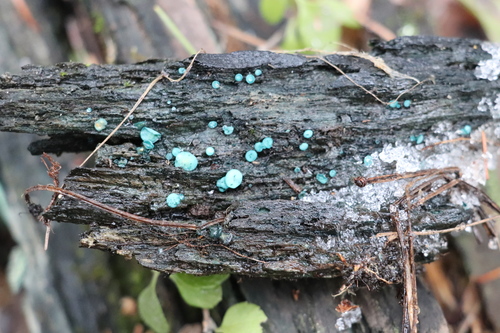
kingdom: Fungi
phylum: Ascomycota
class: Leotiomycetes
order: Helotiales
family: Chlorociboriaceae
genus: Chlorociboria
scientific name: Chlorociboria aeruginosa
